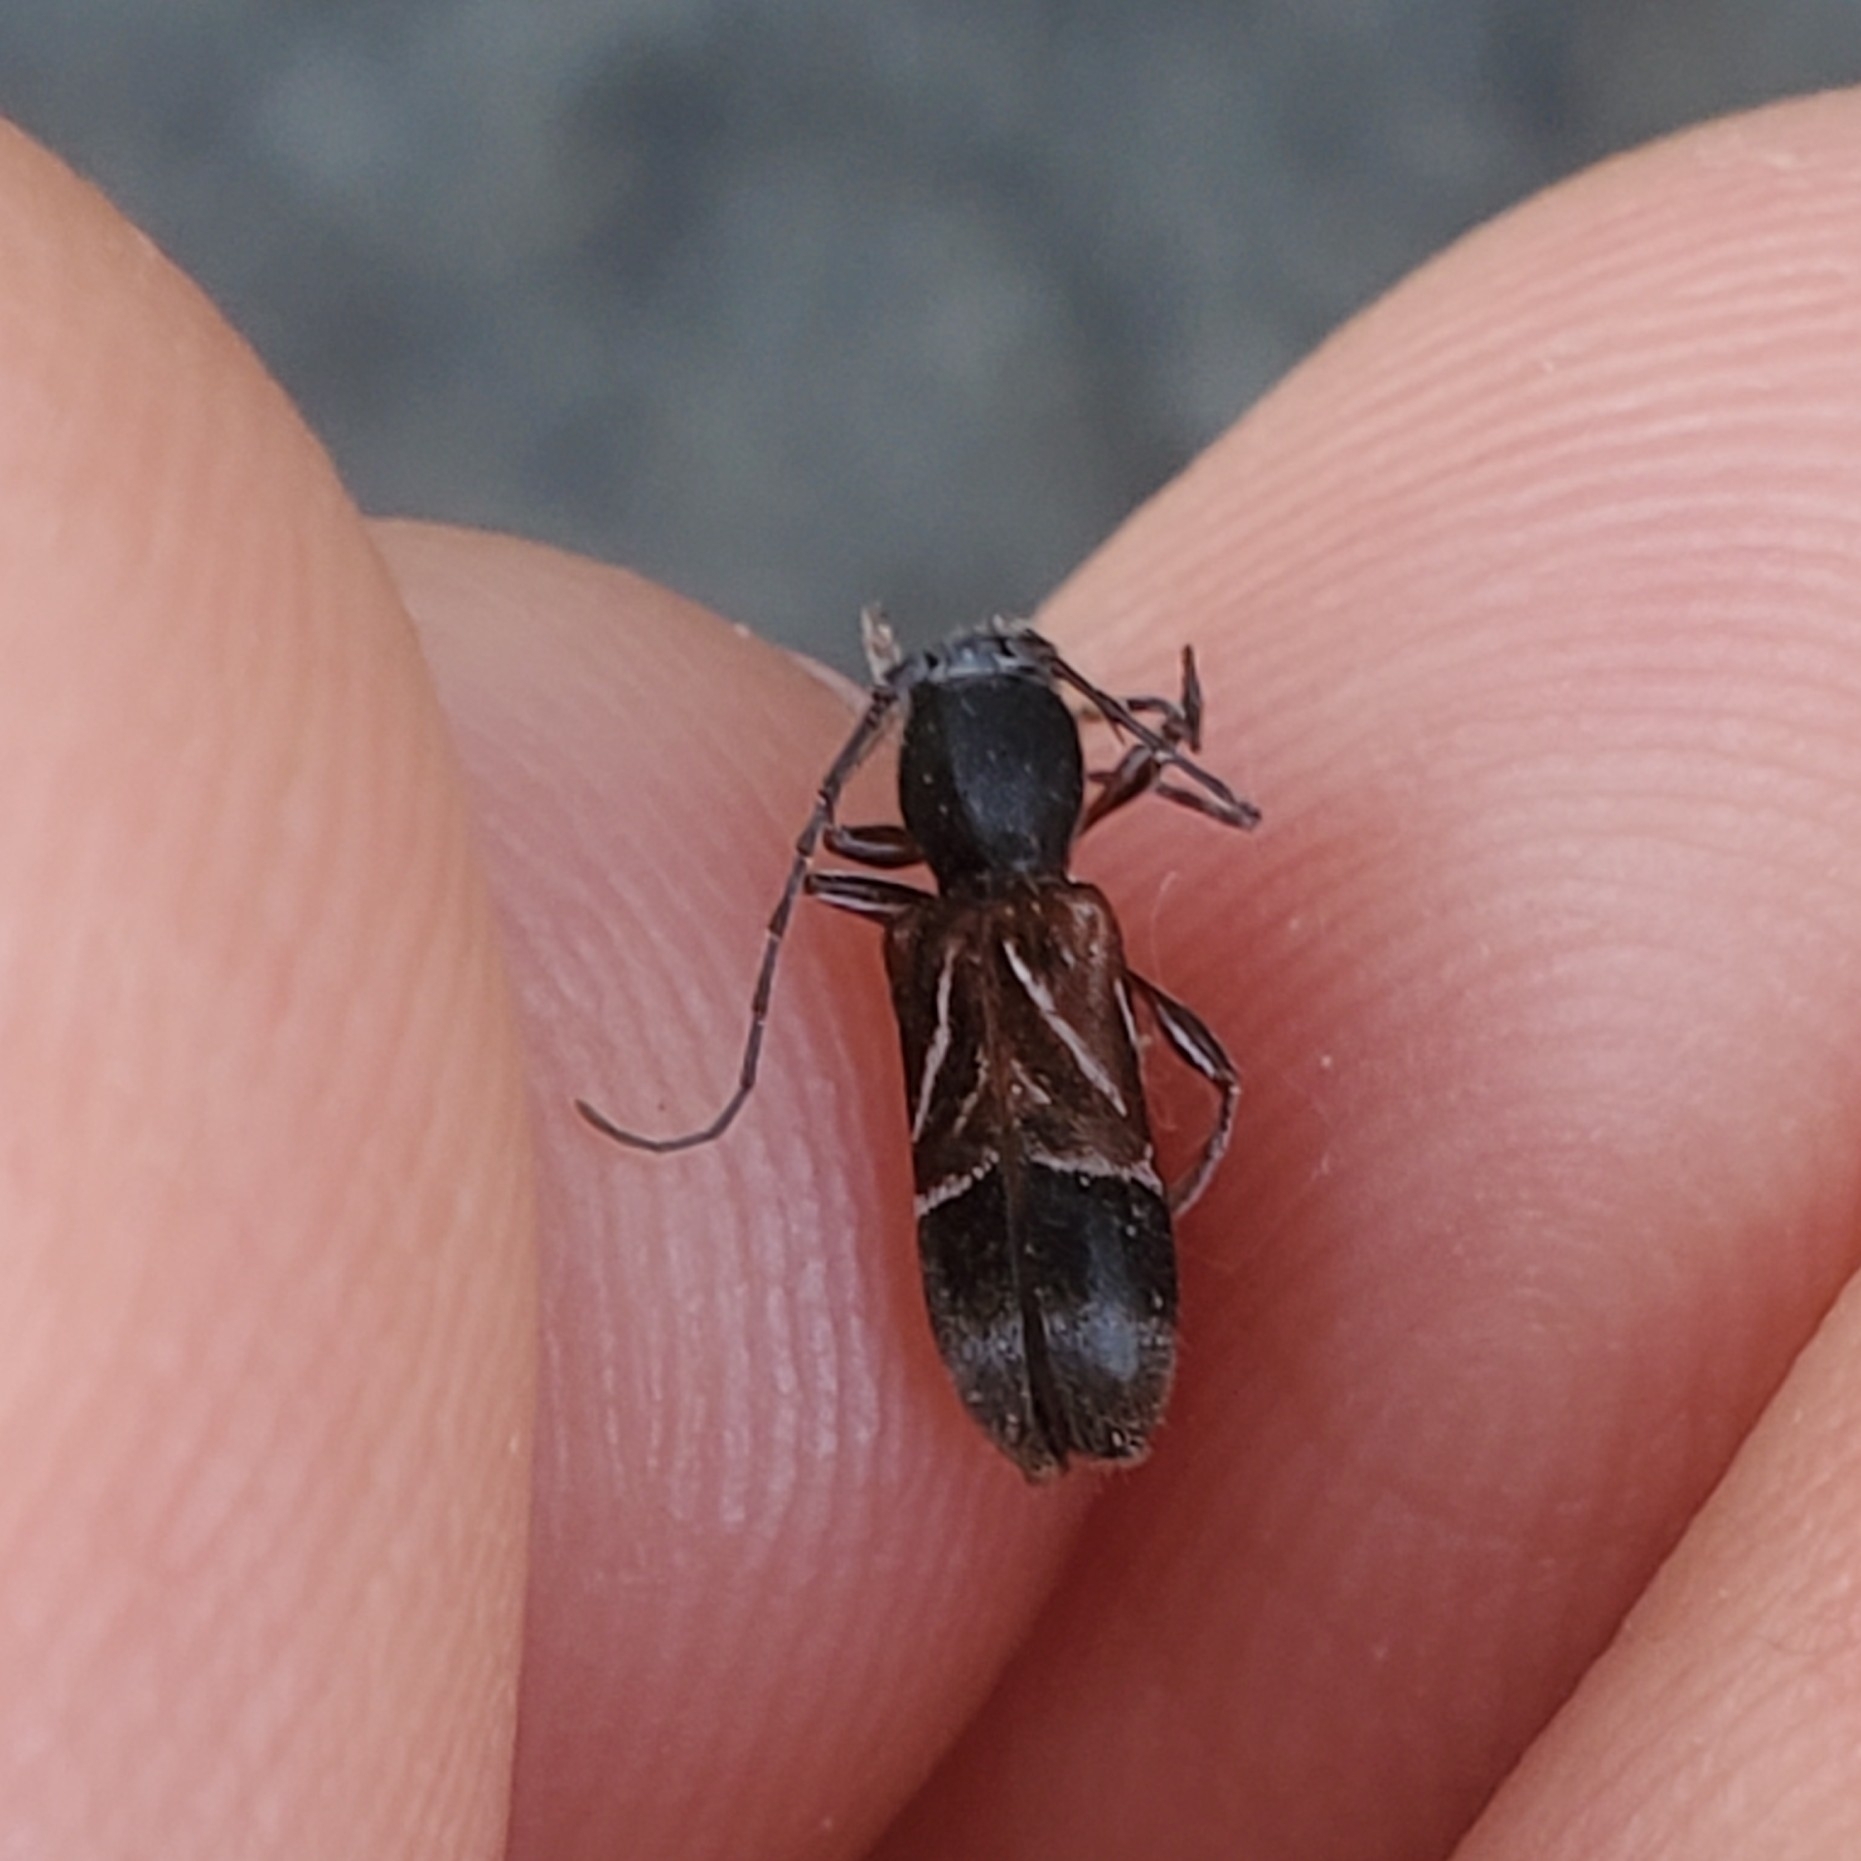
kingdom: Animalia
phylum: Arthropoda
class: Insecta
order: Coleoptera
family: Cerambycidae
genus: Cyrtophorus
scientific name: Cyrtophorus verrucosus
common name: Ant-like longhorn beetle
